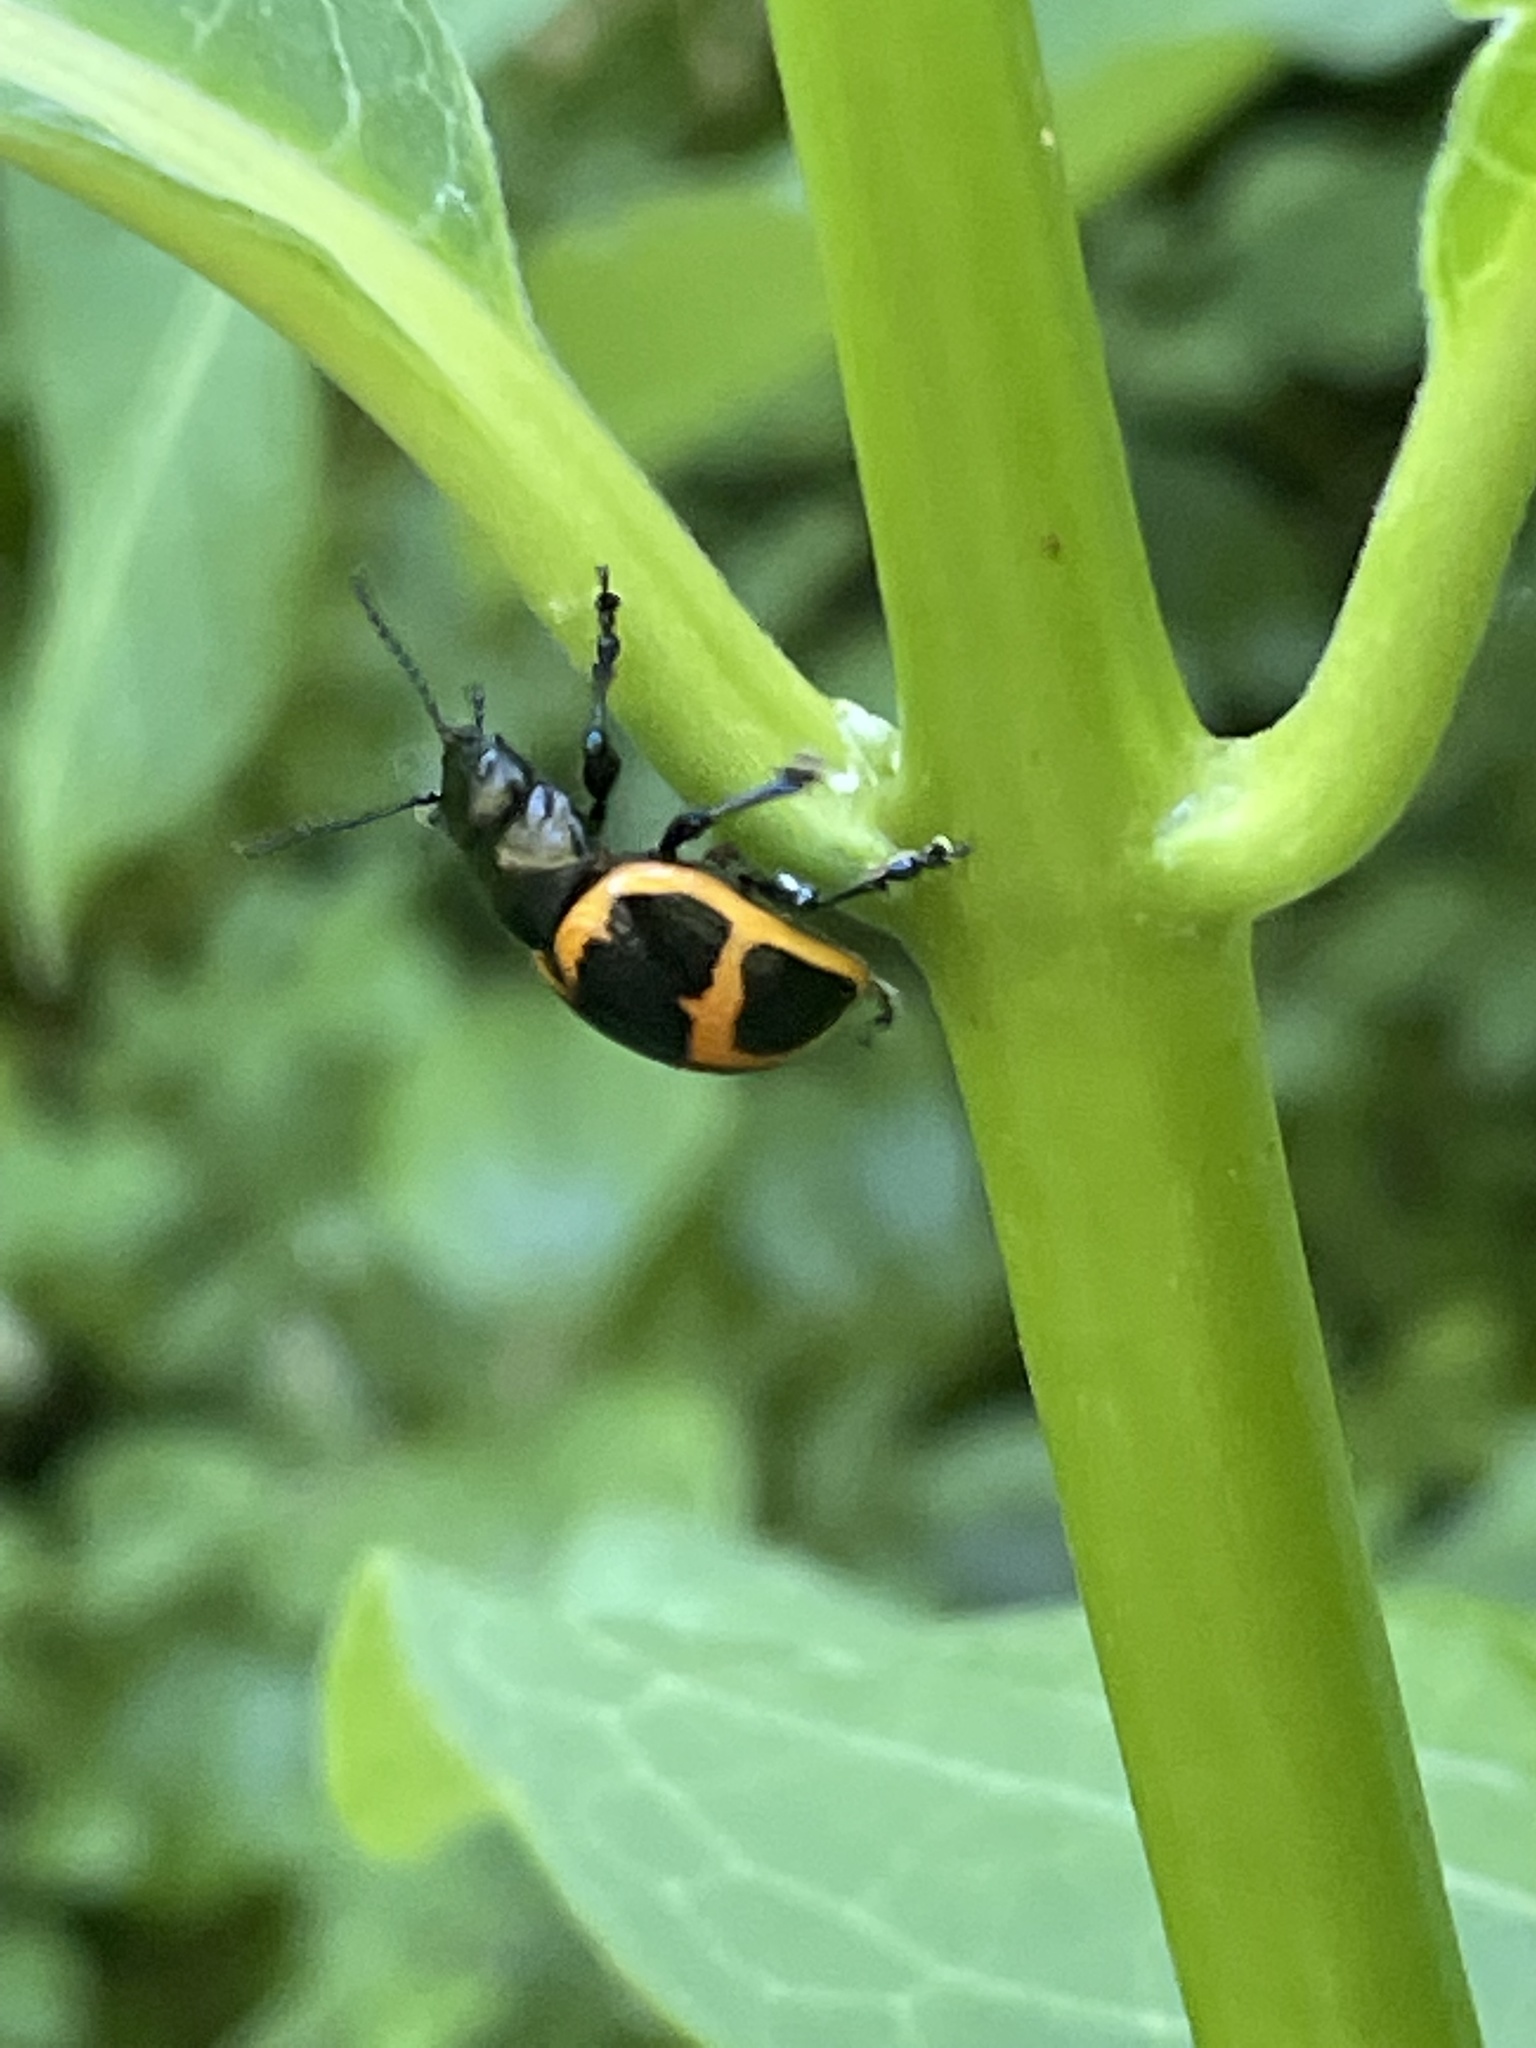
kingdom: Animalia
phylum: Arthropoda
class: Insecta
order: Coleoptera
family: Chrysomelidae
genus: Labidomera
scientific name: Labidomera clivicollis
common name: Swamp milkweed leaf beetle
